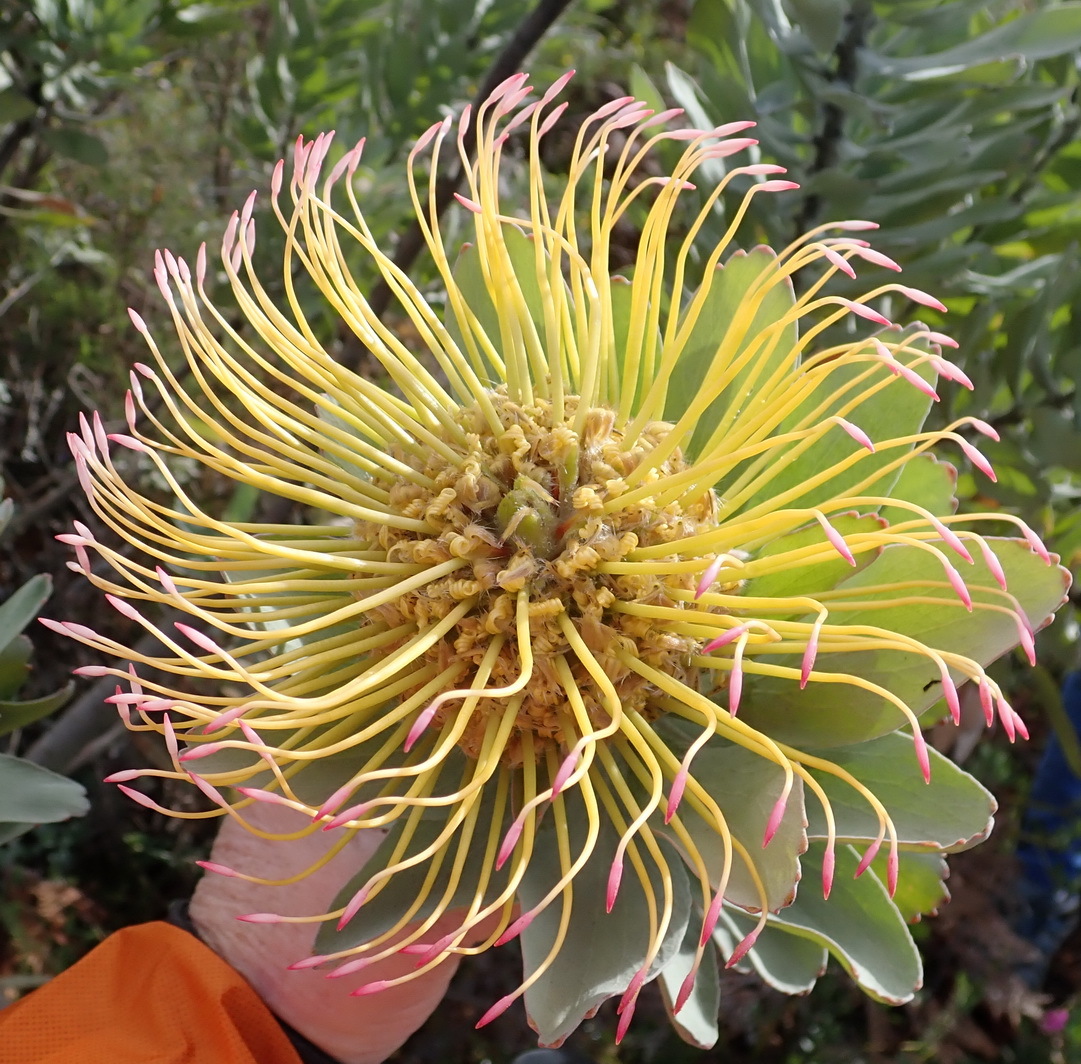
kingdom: Plantae
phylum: Tracheophyta
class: Magnoliopsida
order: Proteales
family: Proteaceae
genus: Leucospermum
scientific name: Leucospermum formosum
